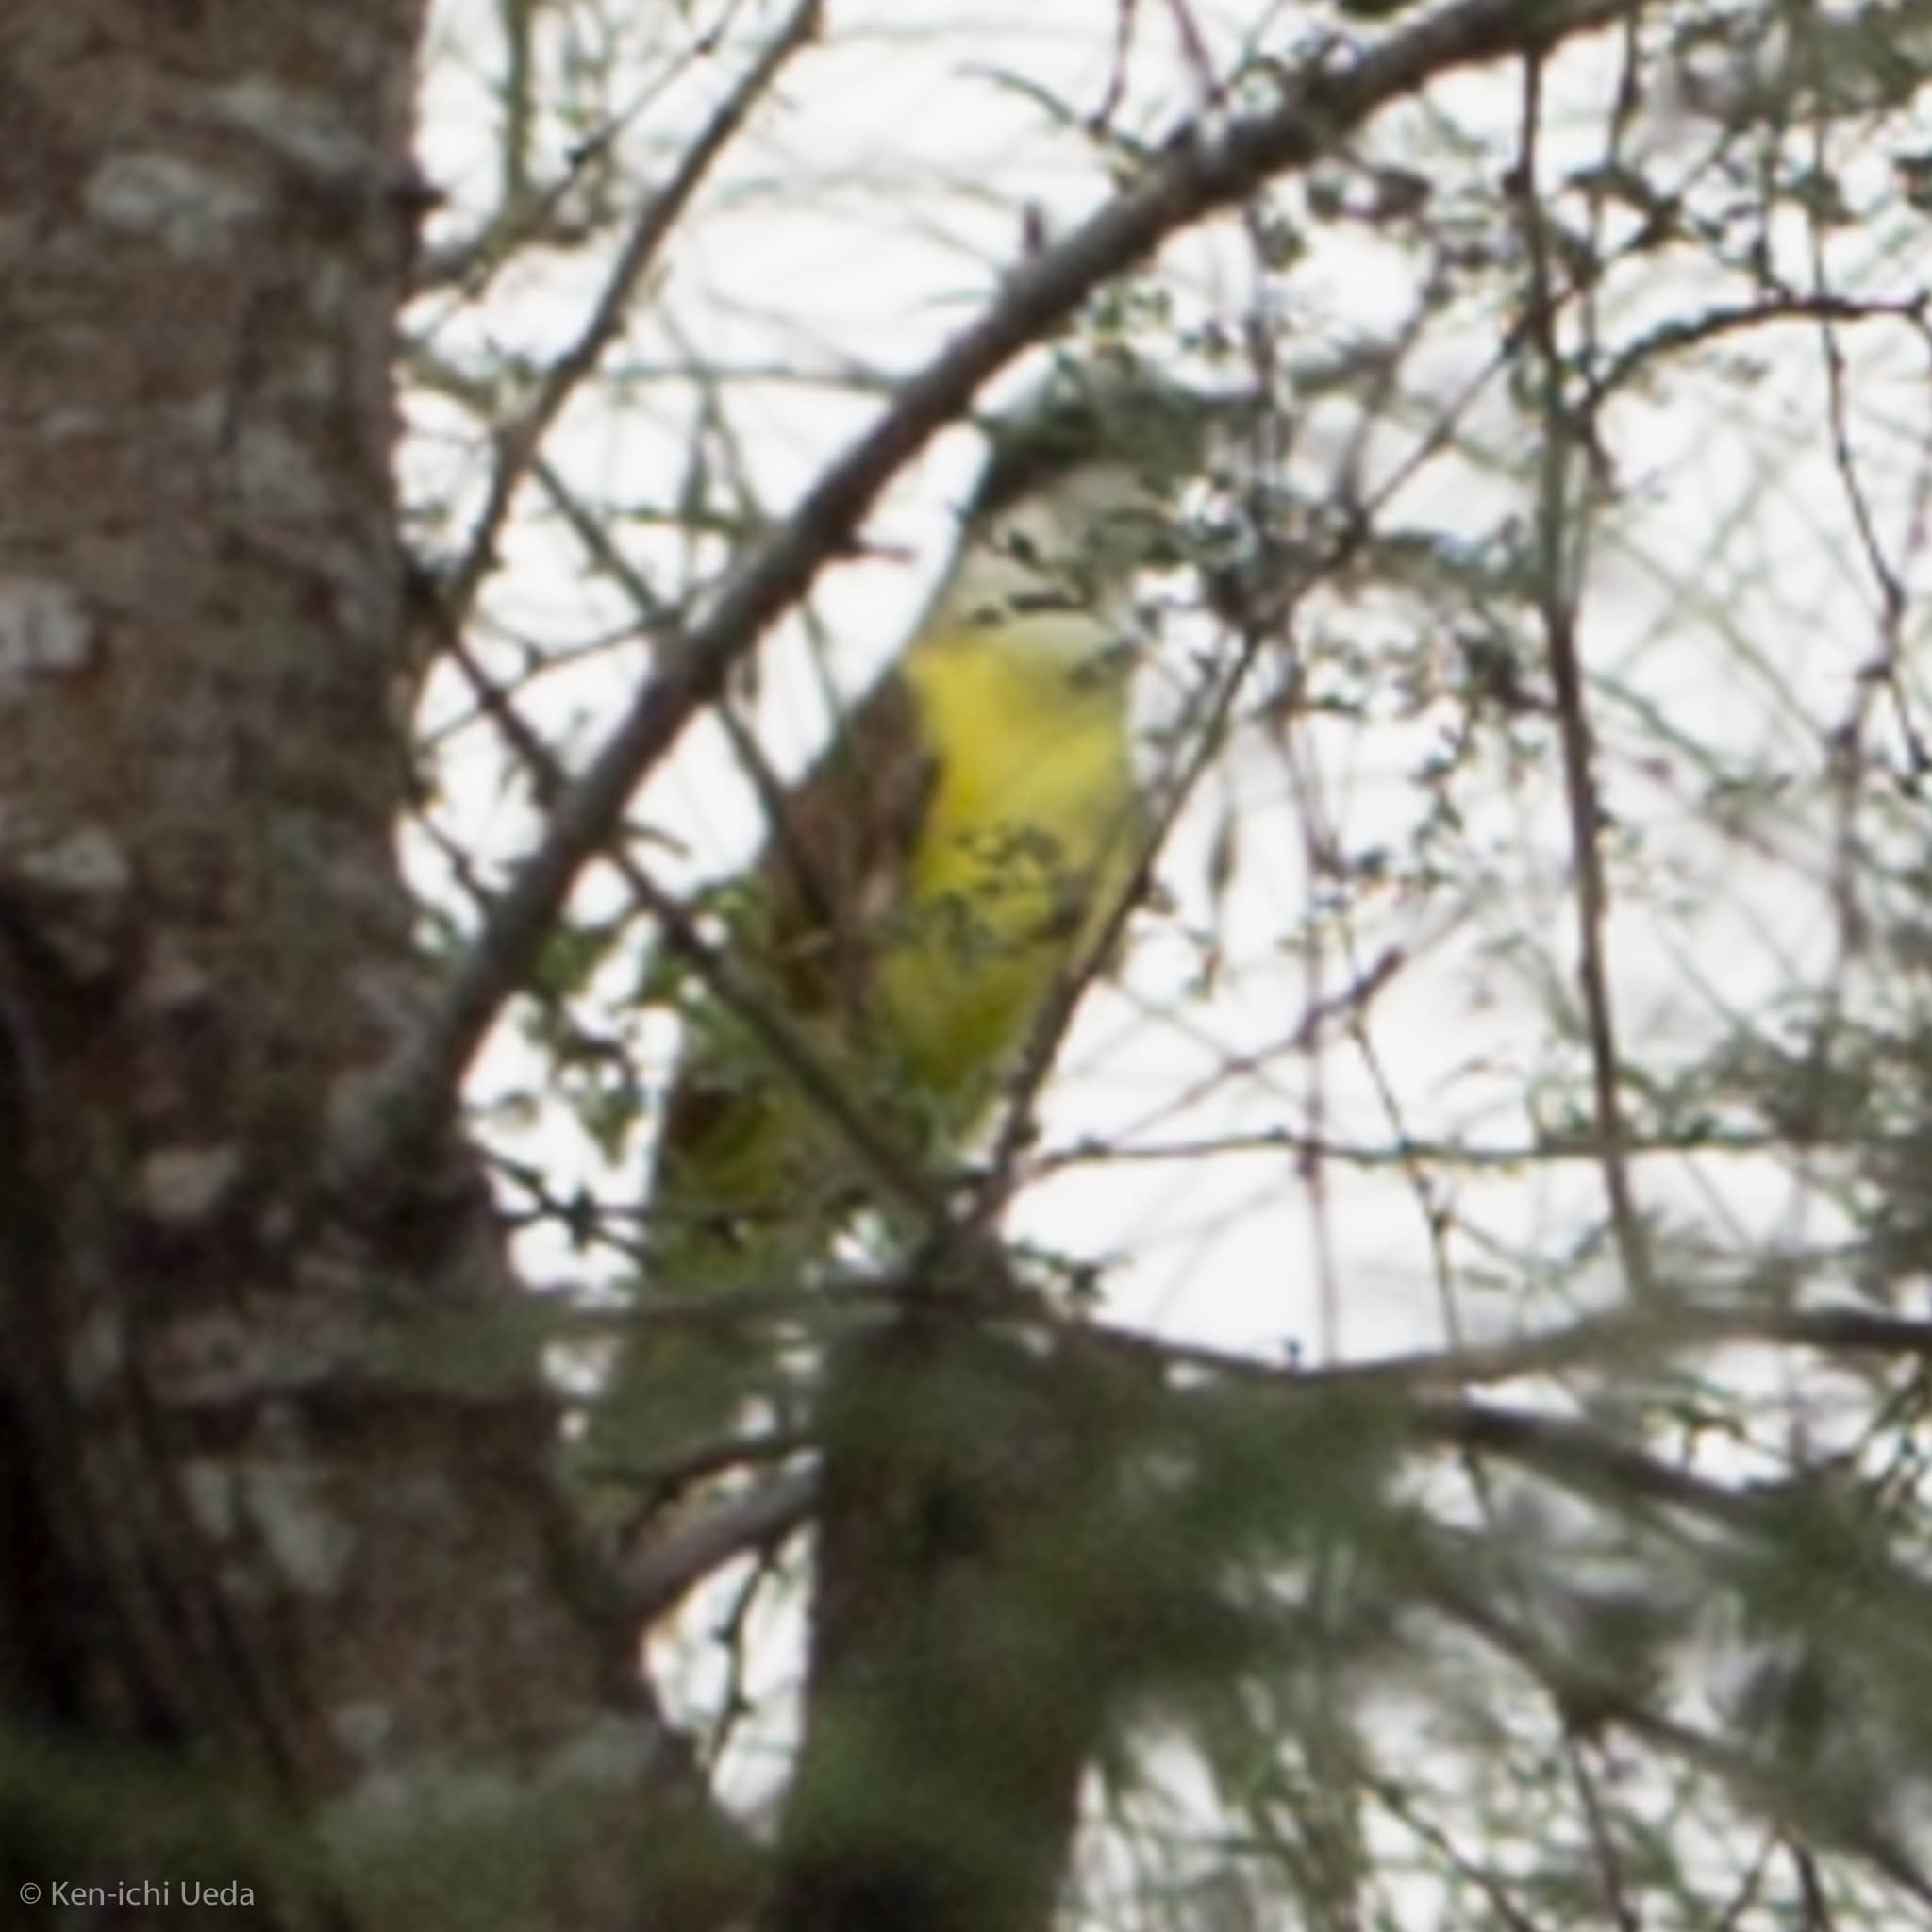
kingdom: Animalia
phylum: Chordata
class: Aves
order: Passeriformes
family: Tyrannidae
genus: Pitangus
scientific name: Pitangus sulphuratus
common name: Great kiskadee
